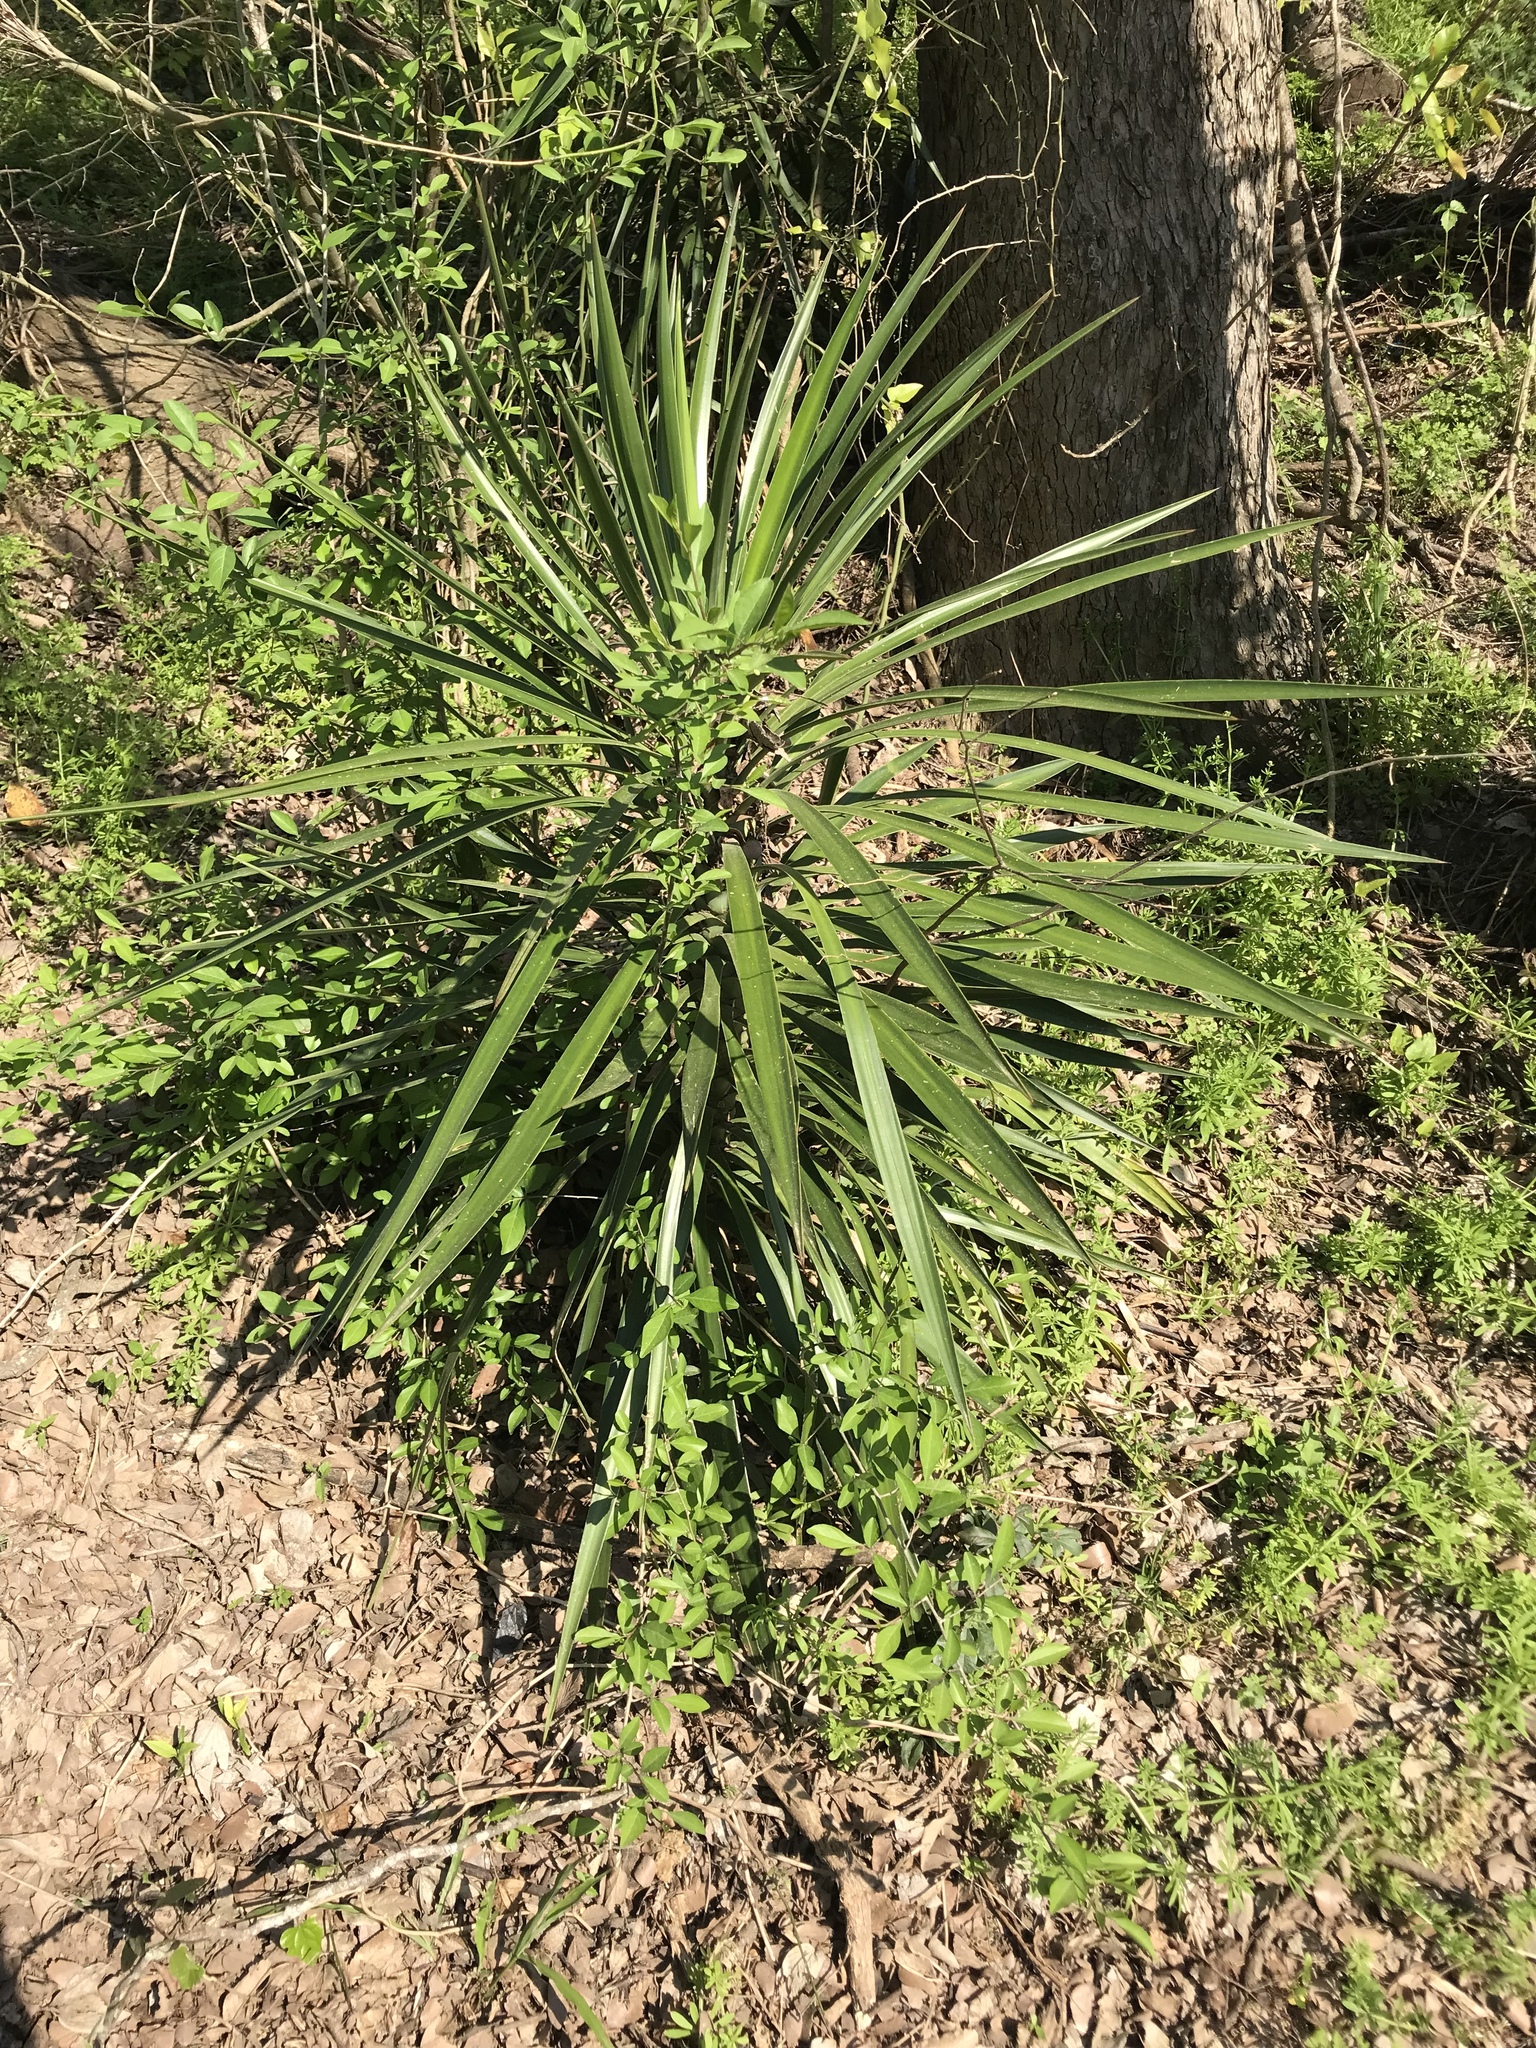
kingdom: Plantae
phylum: Tracheophyta
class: Liliopsida
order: Asparagales
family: Asparagaceae
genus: Yucca
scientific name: Yucca aloifolia
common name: Aloe yucca
